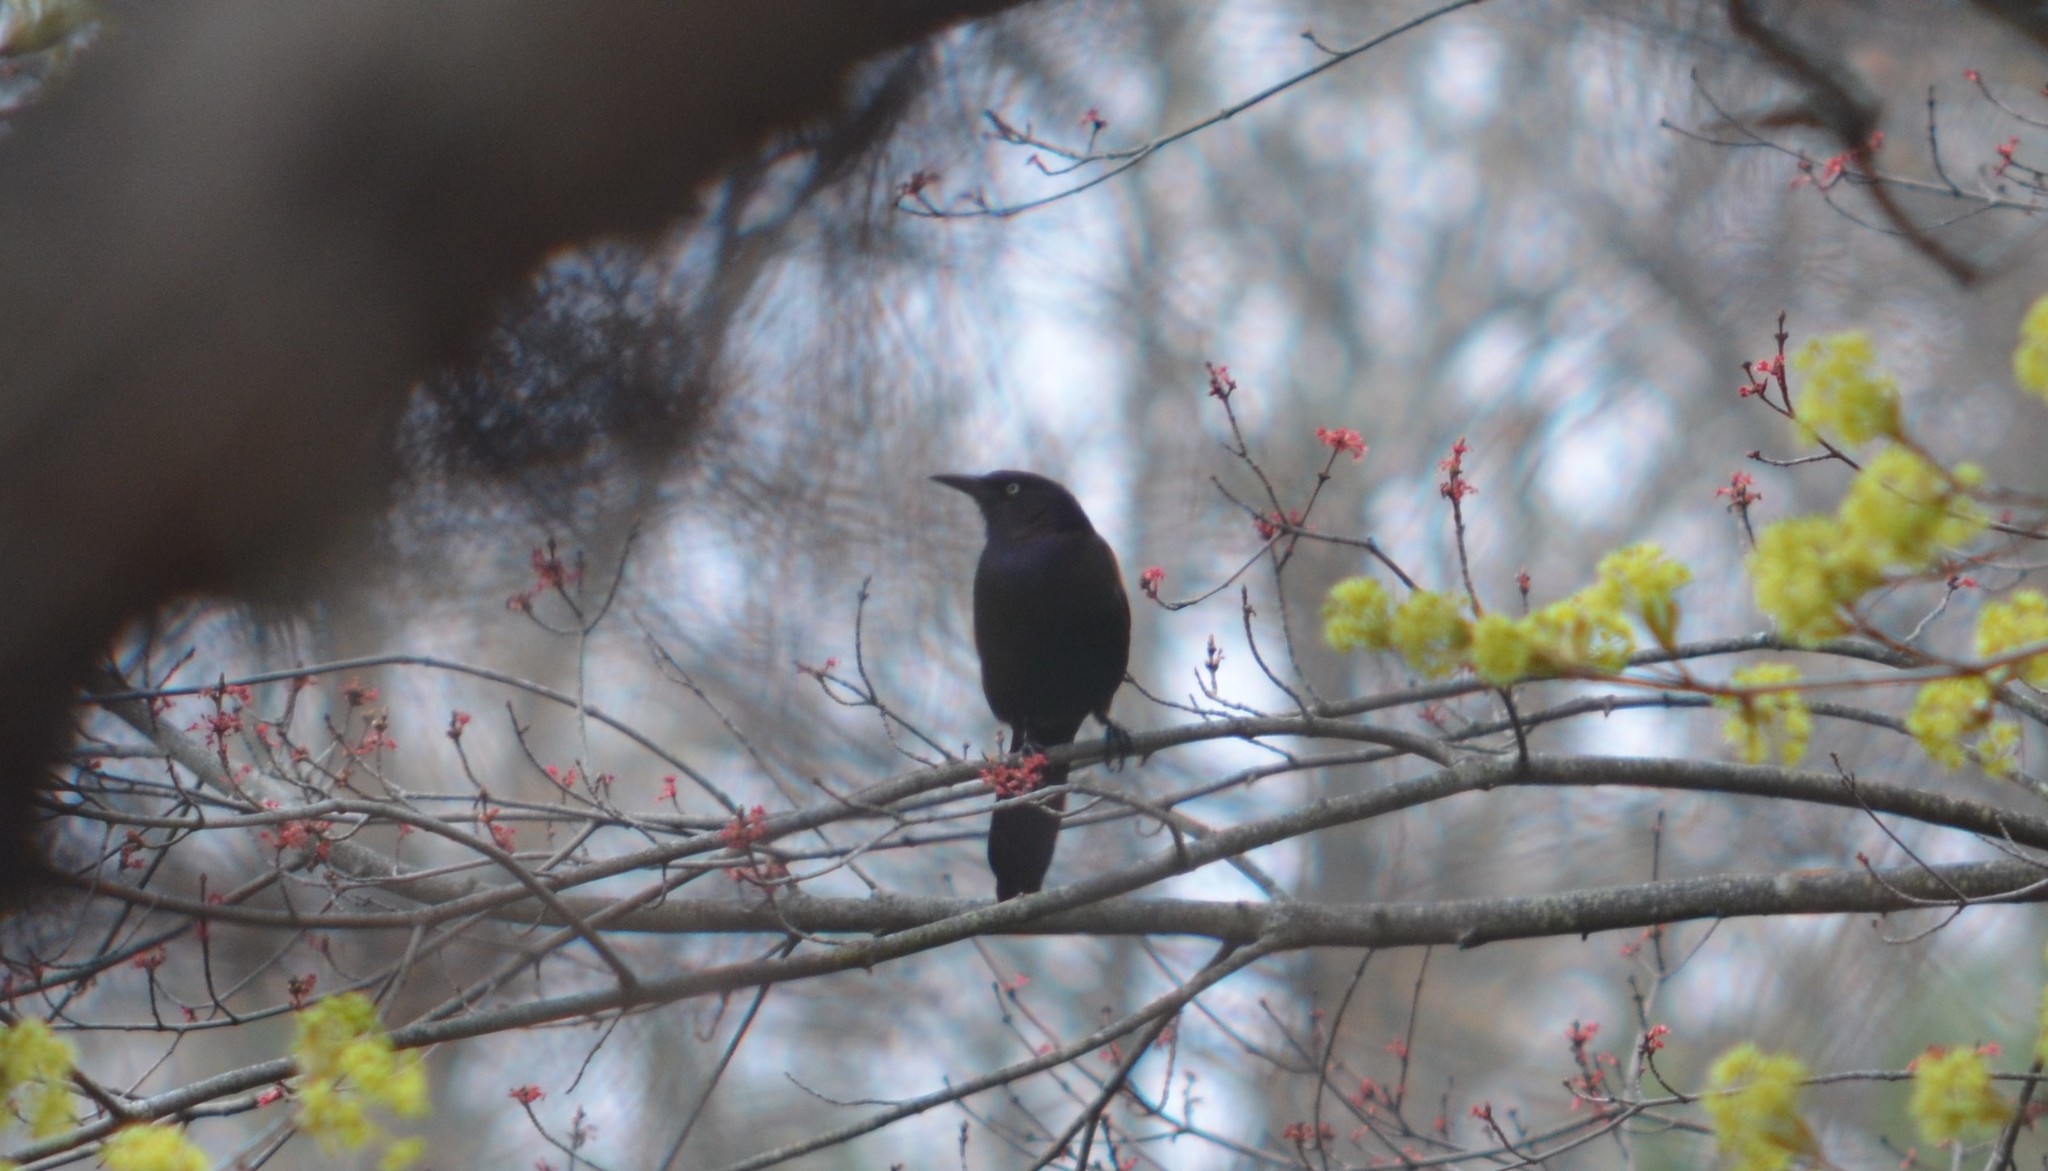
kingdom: Animalia
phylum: Chordata
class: Aves
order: Passeriformes
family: Icteridae
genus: Quiscalus
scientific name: Quiscalus quiscula
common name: Common grackle
